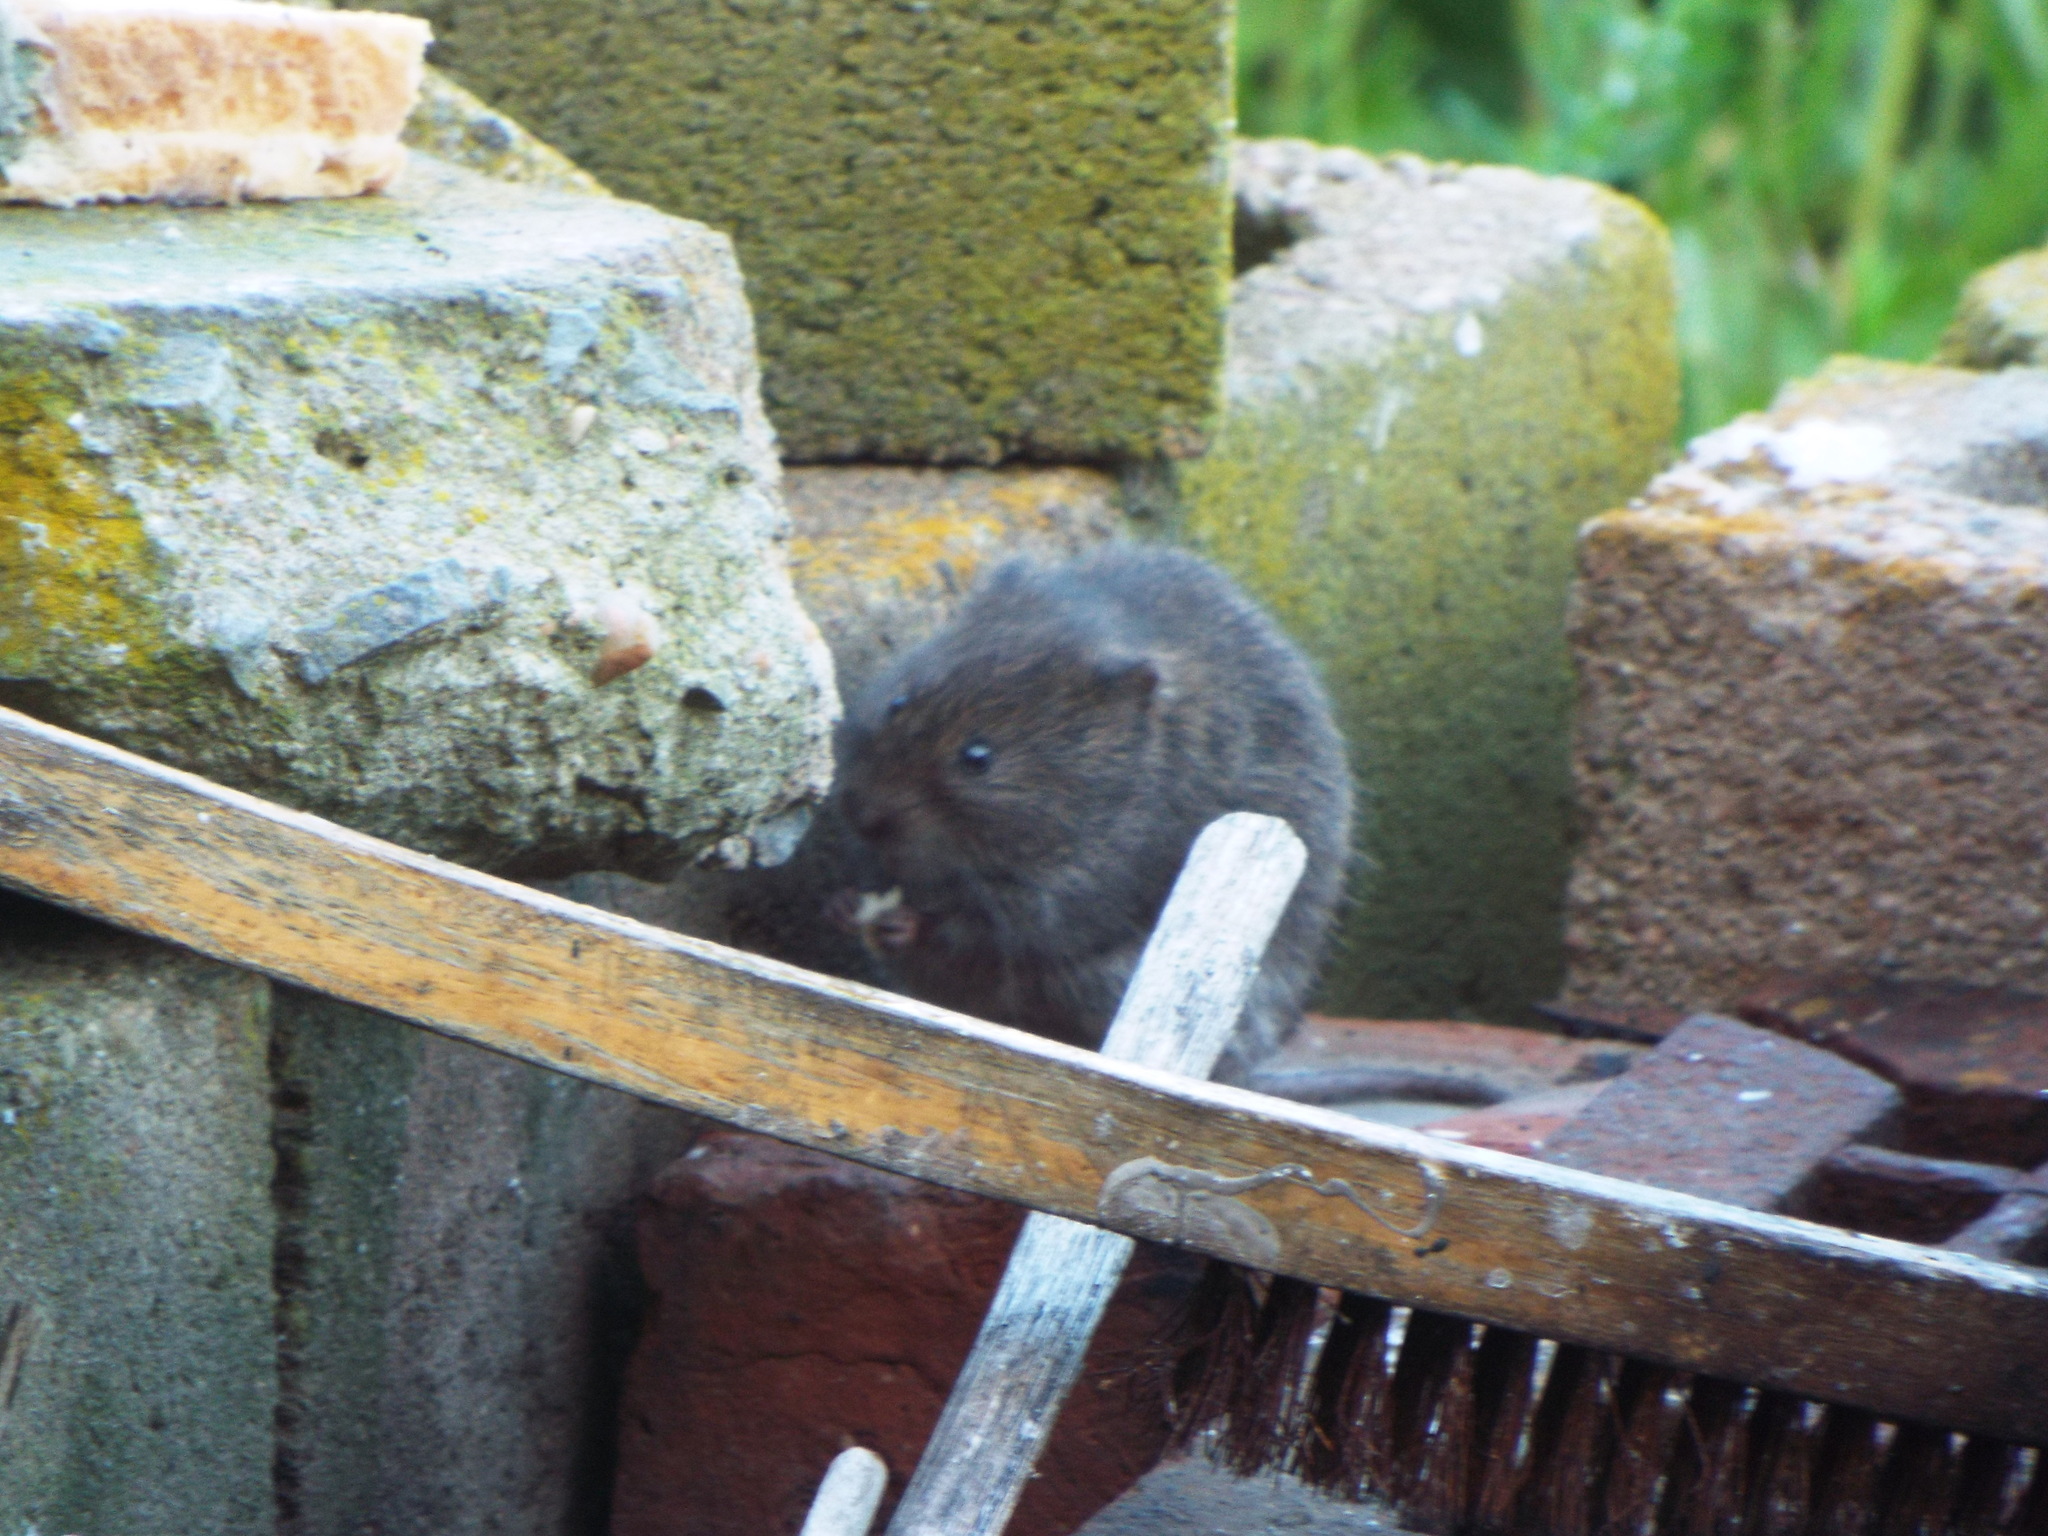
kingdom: Animalia
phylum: Chordata
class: Mammalia
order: Rodentia
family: Cricetidae
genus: Microtus
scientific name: Microtus pennsylvanicus
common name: Meadow vole
